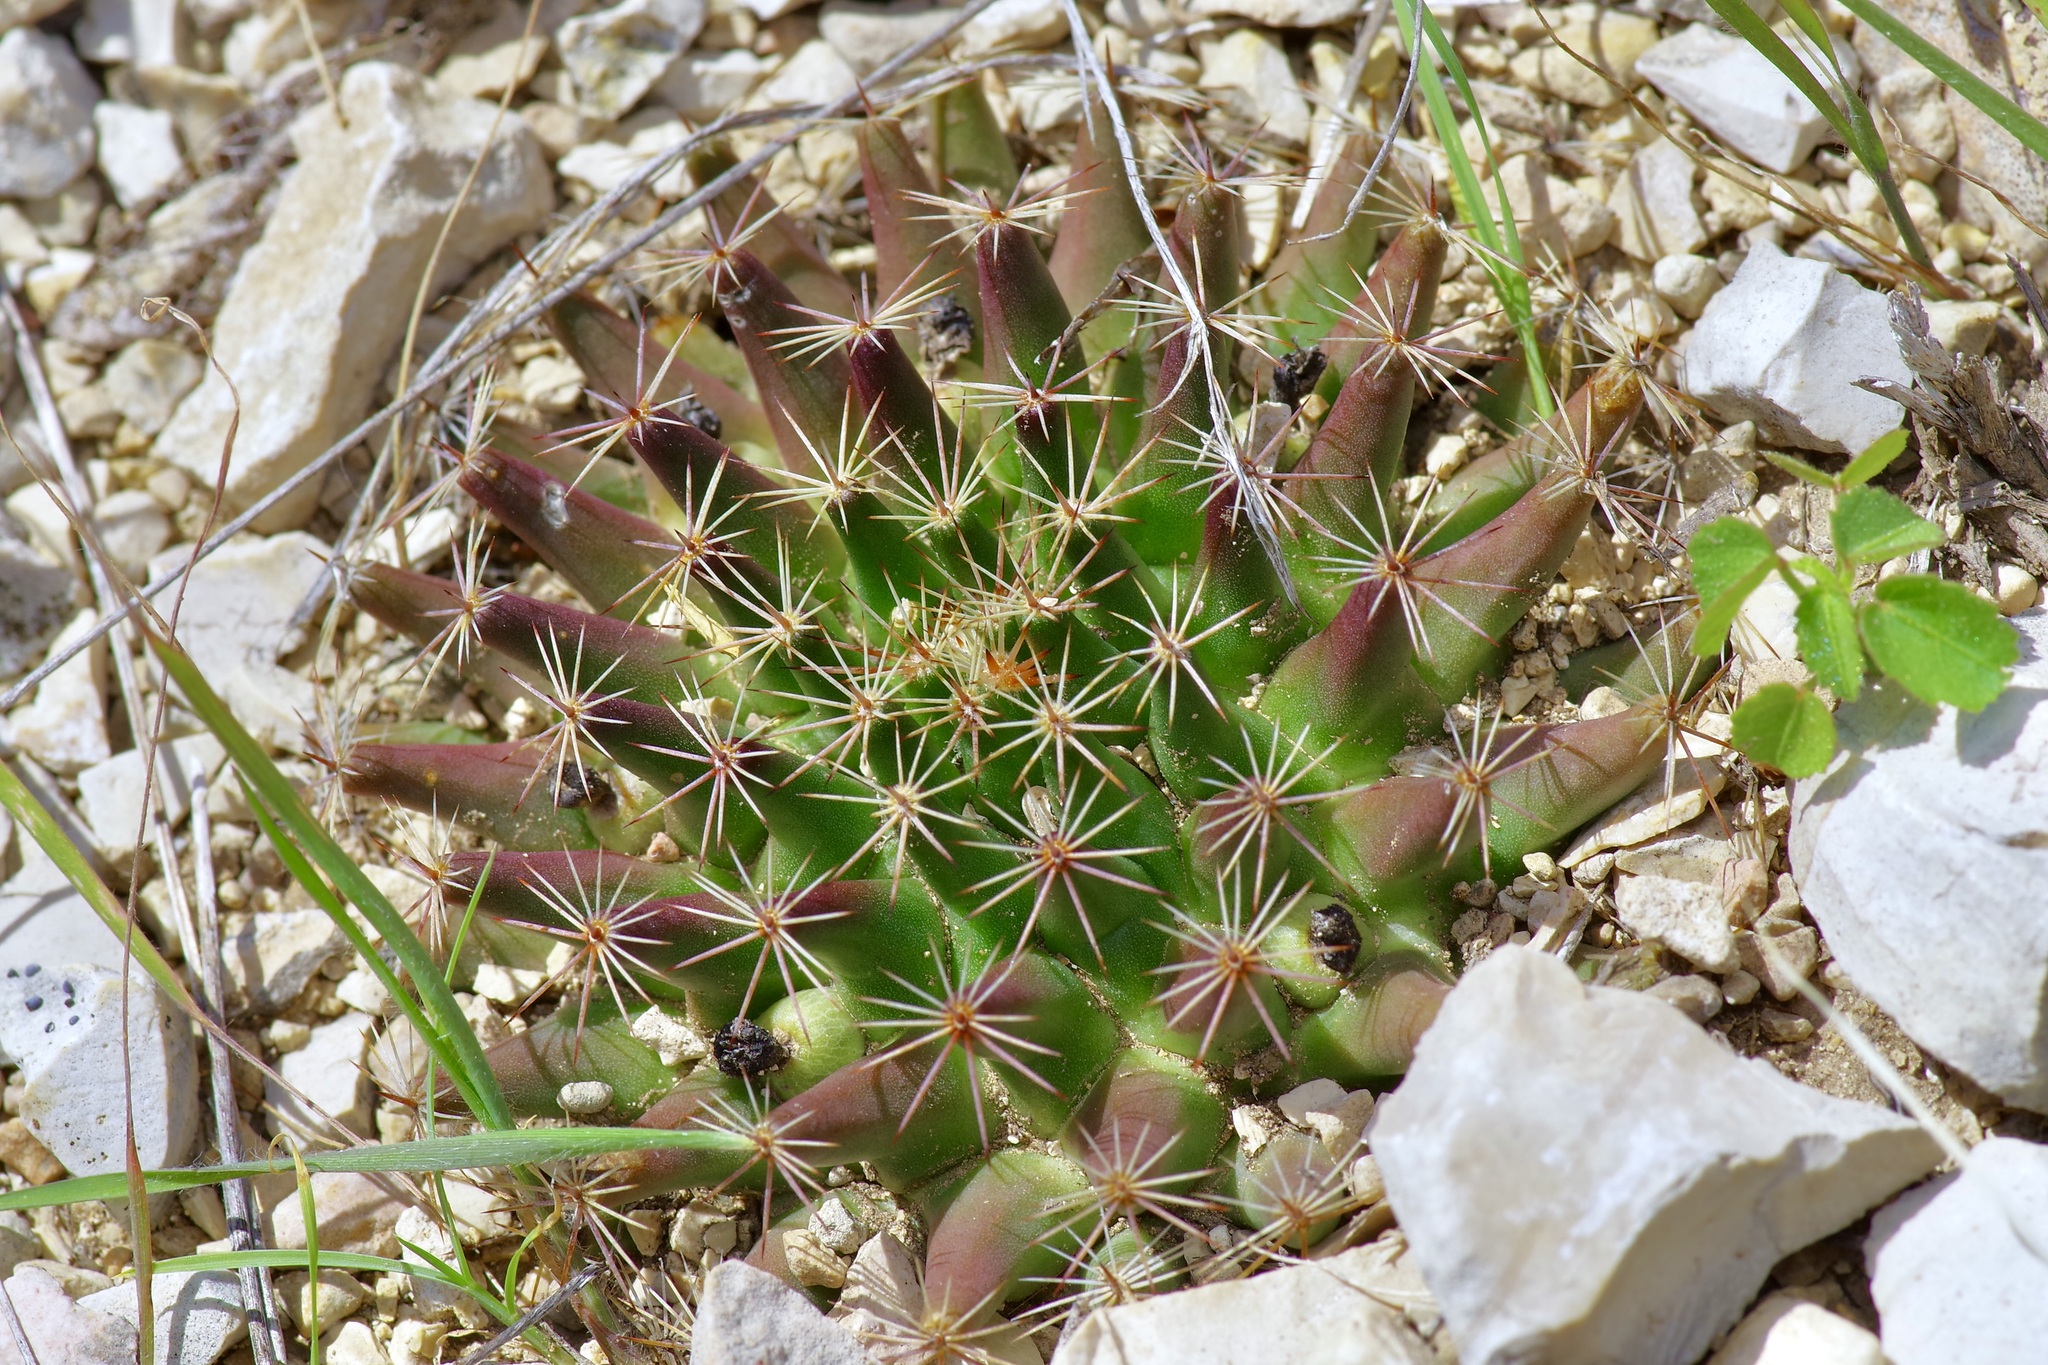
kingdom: Plantae
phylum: Tracheophyta
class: Magnoliopsida
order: Caryophyllales
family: Cactaceae
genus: Mammillaria
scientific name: Mammillaria heyderi
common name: Little nipple cactus
